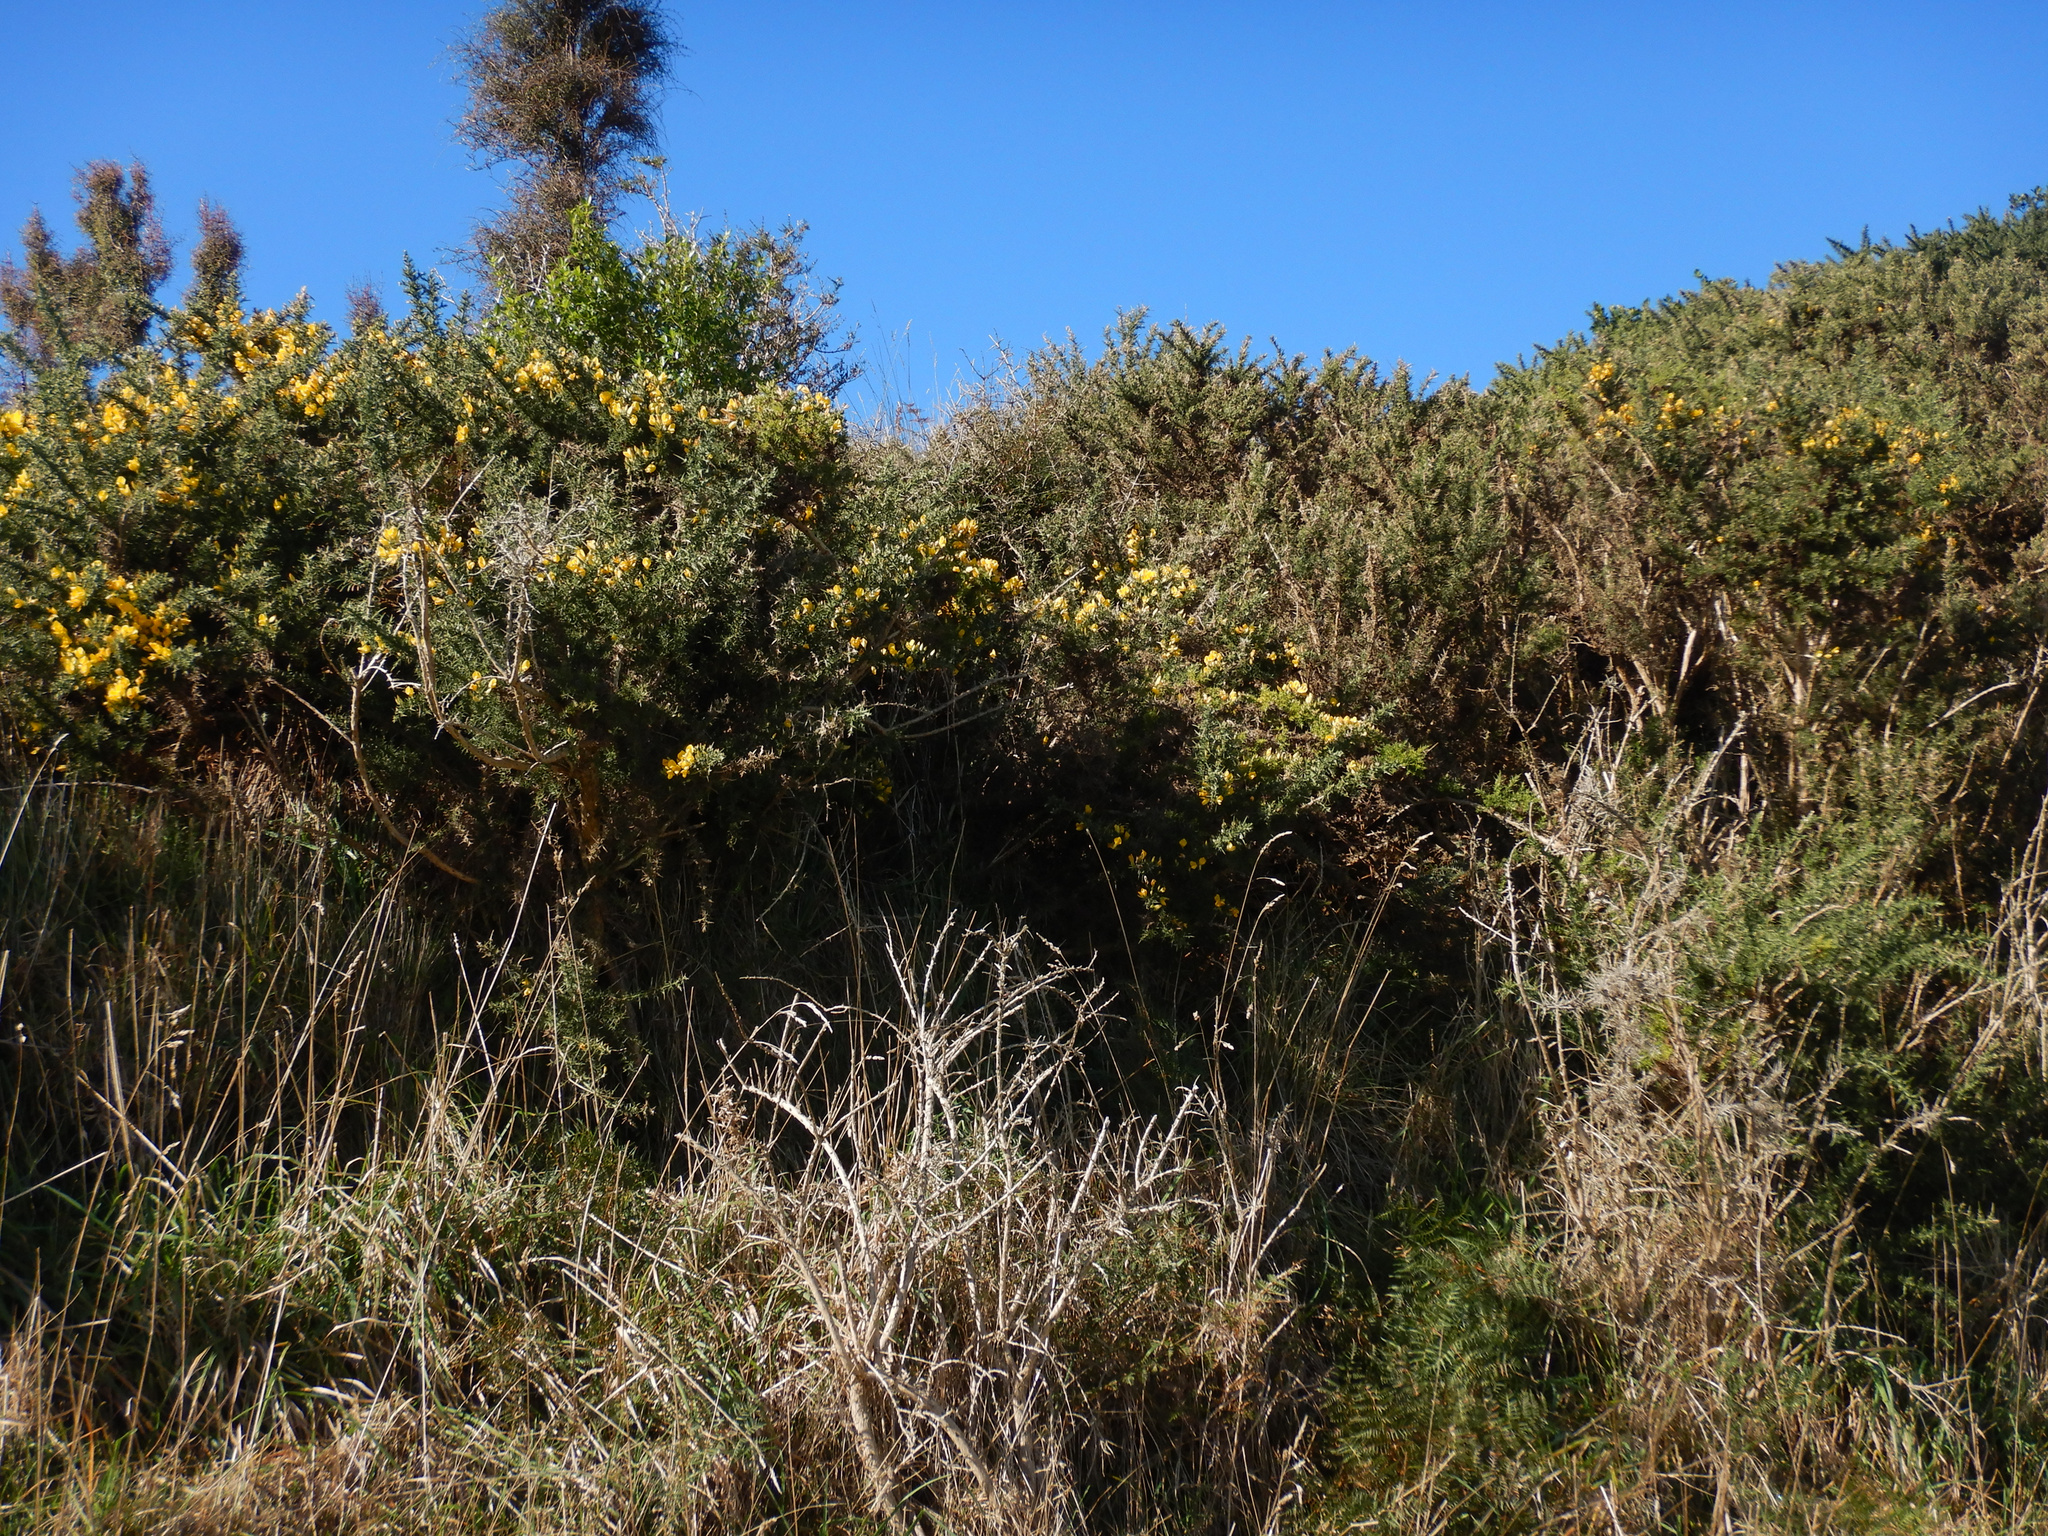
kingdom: Plantae
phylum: Tracheophyta
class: Magnoliopsida
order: Fabales
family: Fabaceae
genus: Ulex
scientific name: Ulex europaeus
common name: Common gorse
